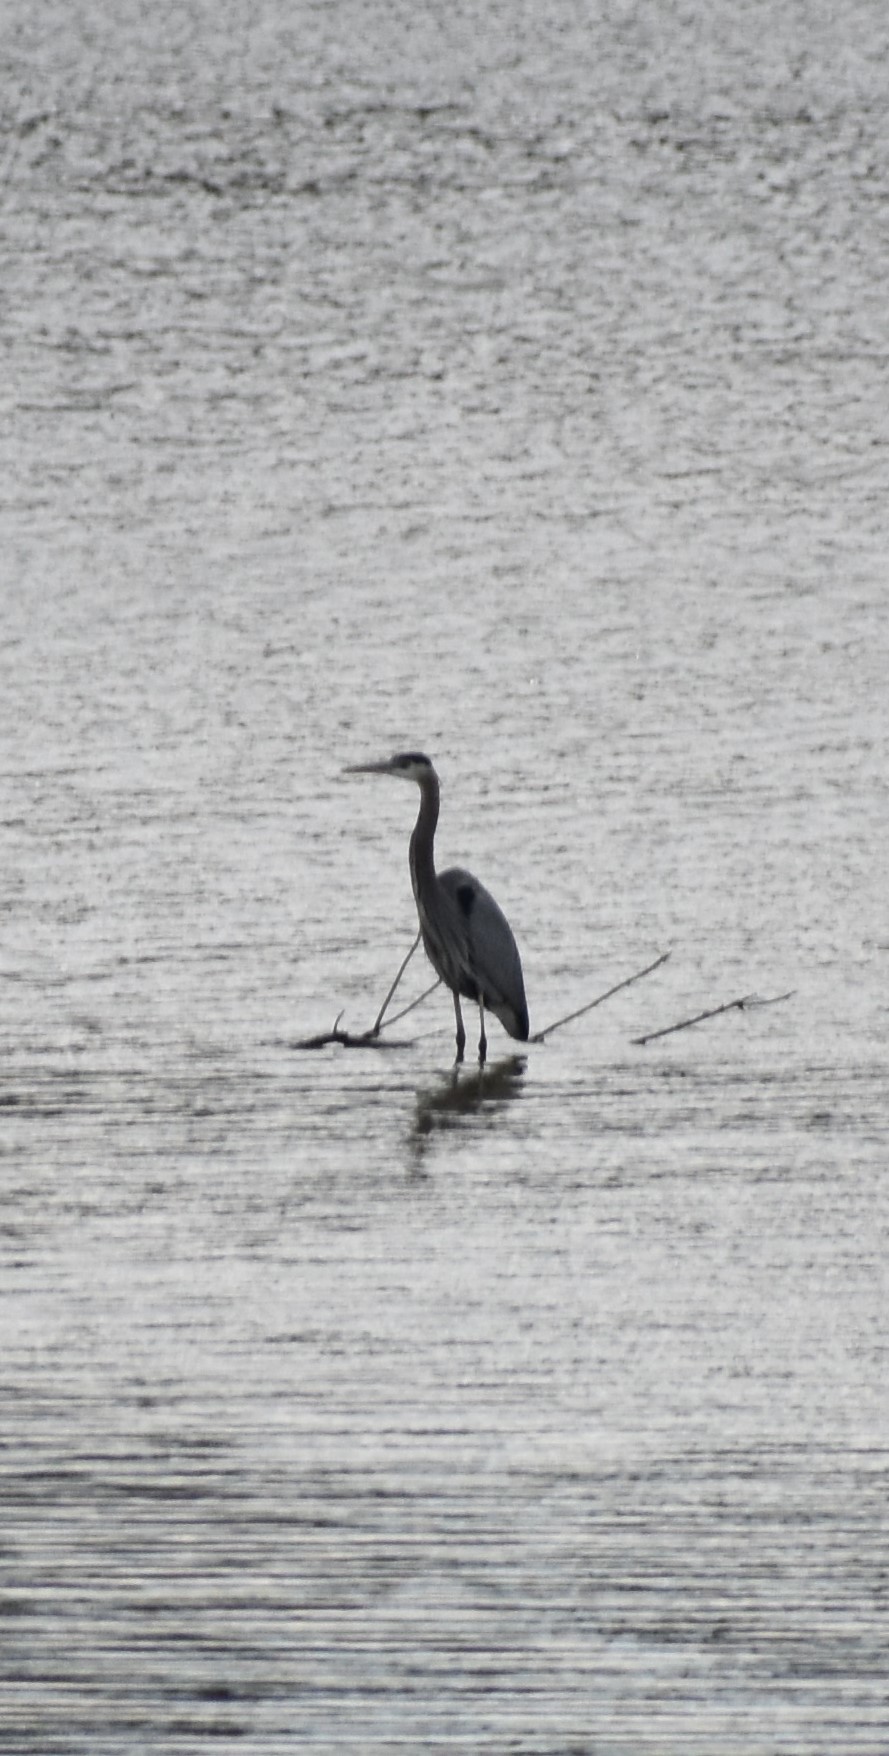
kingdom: Animalia
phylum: Chordata
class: Aves
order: Pelecaniformes
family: Ardeidae
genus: Ardea
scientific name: Ardea herodias
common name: Great blue heron
